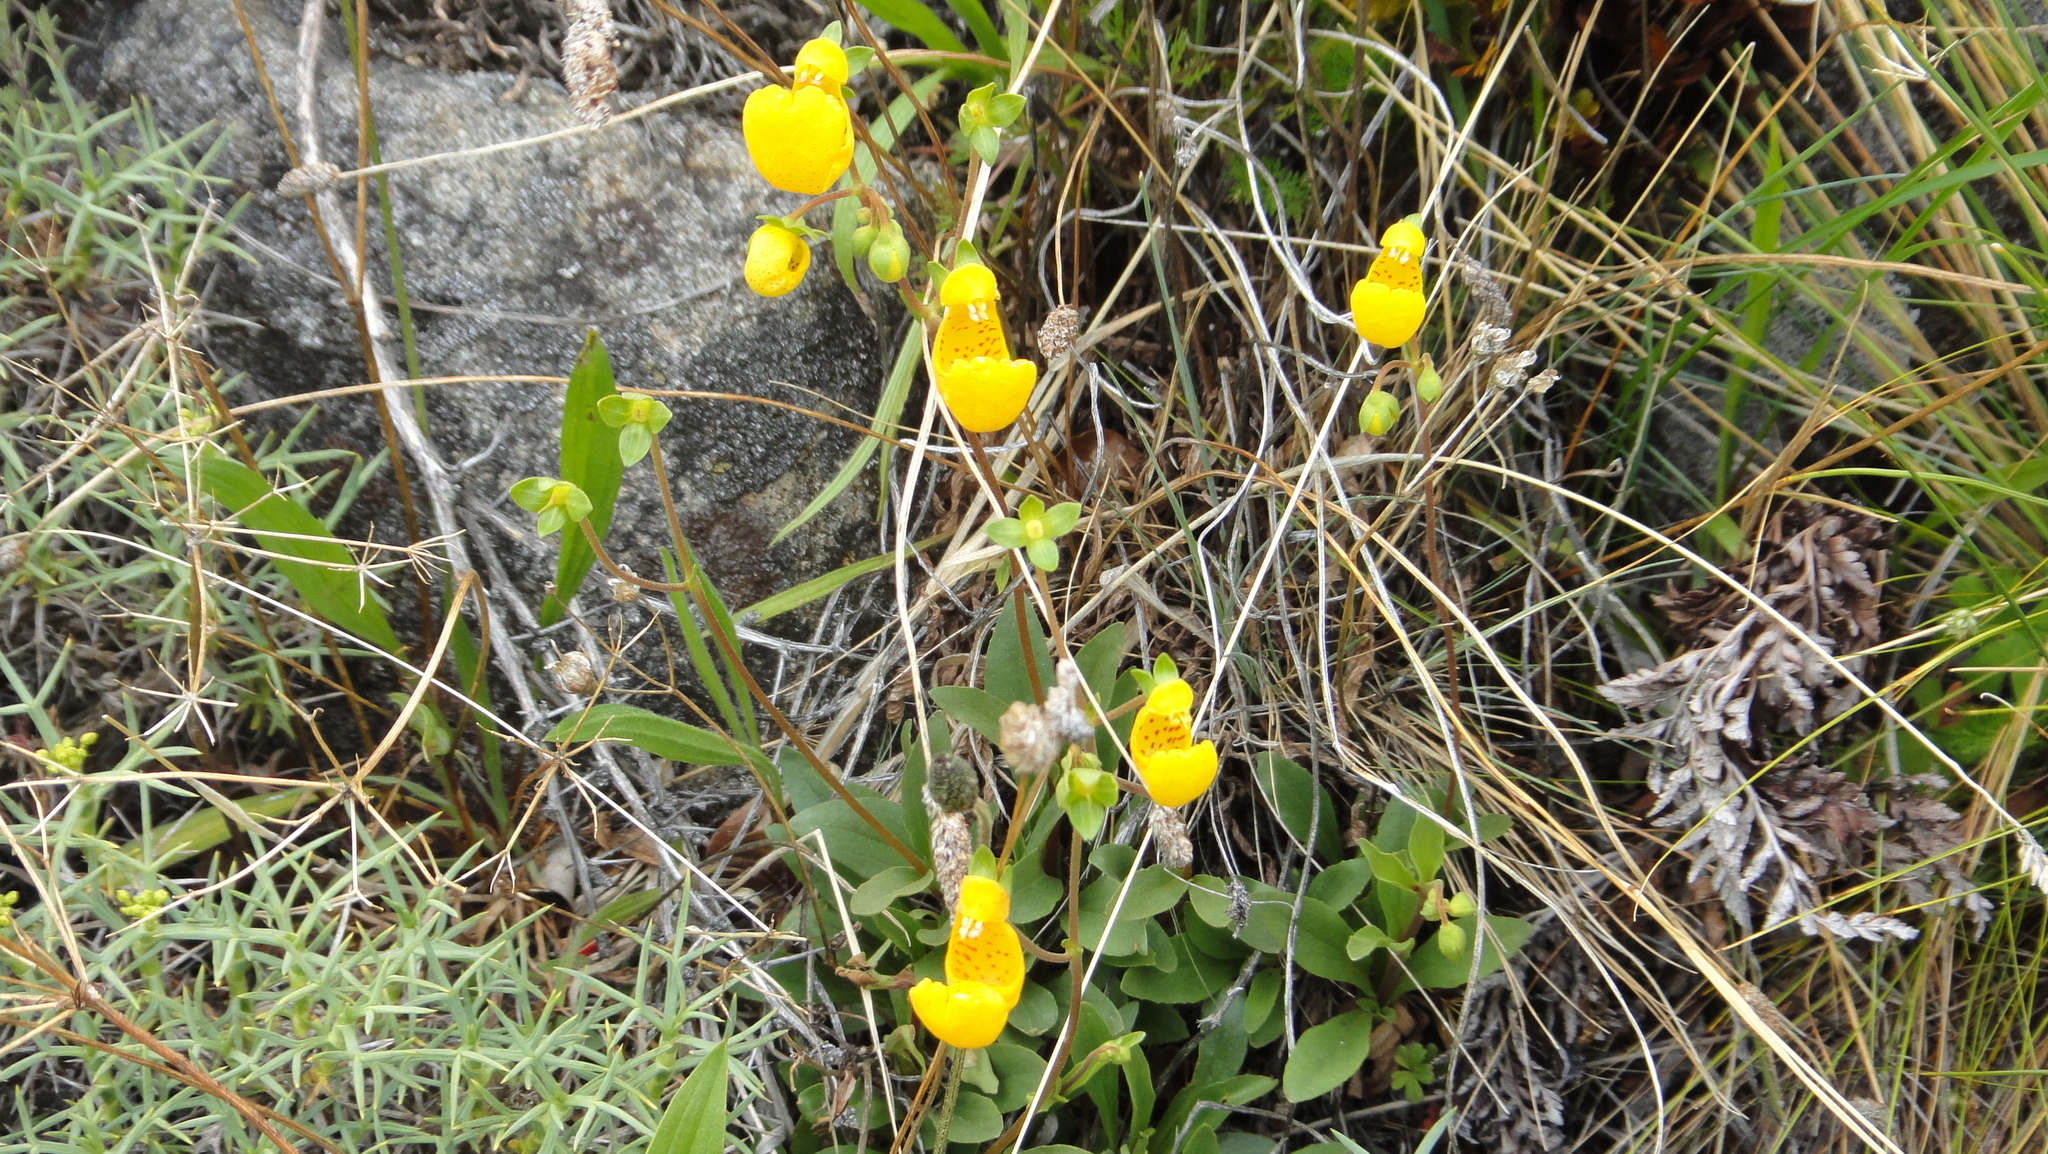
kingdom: Plantae
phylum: Tracheophyta
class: Magnoliopsida
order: Lamiales
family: Calceolariaceae
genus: Calceolaria
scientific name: Calceolaria polyrhiza
